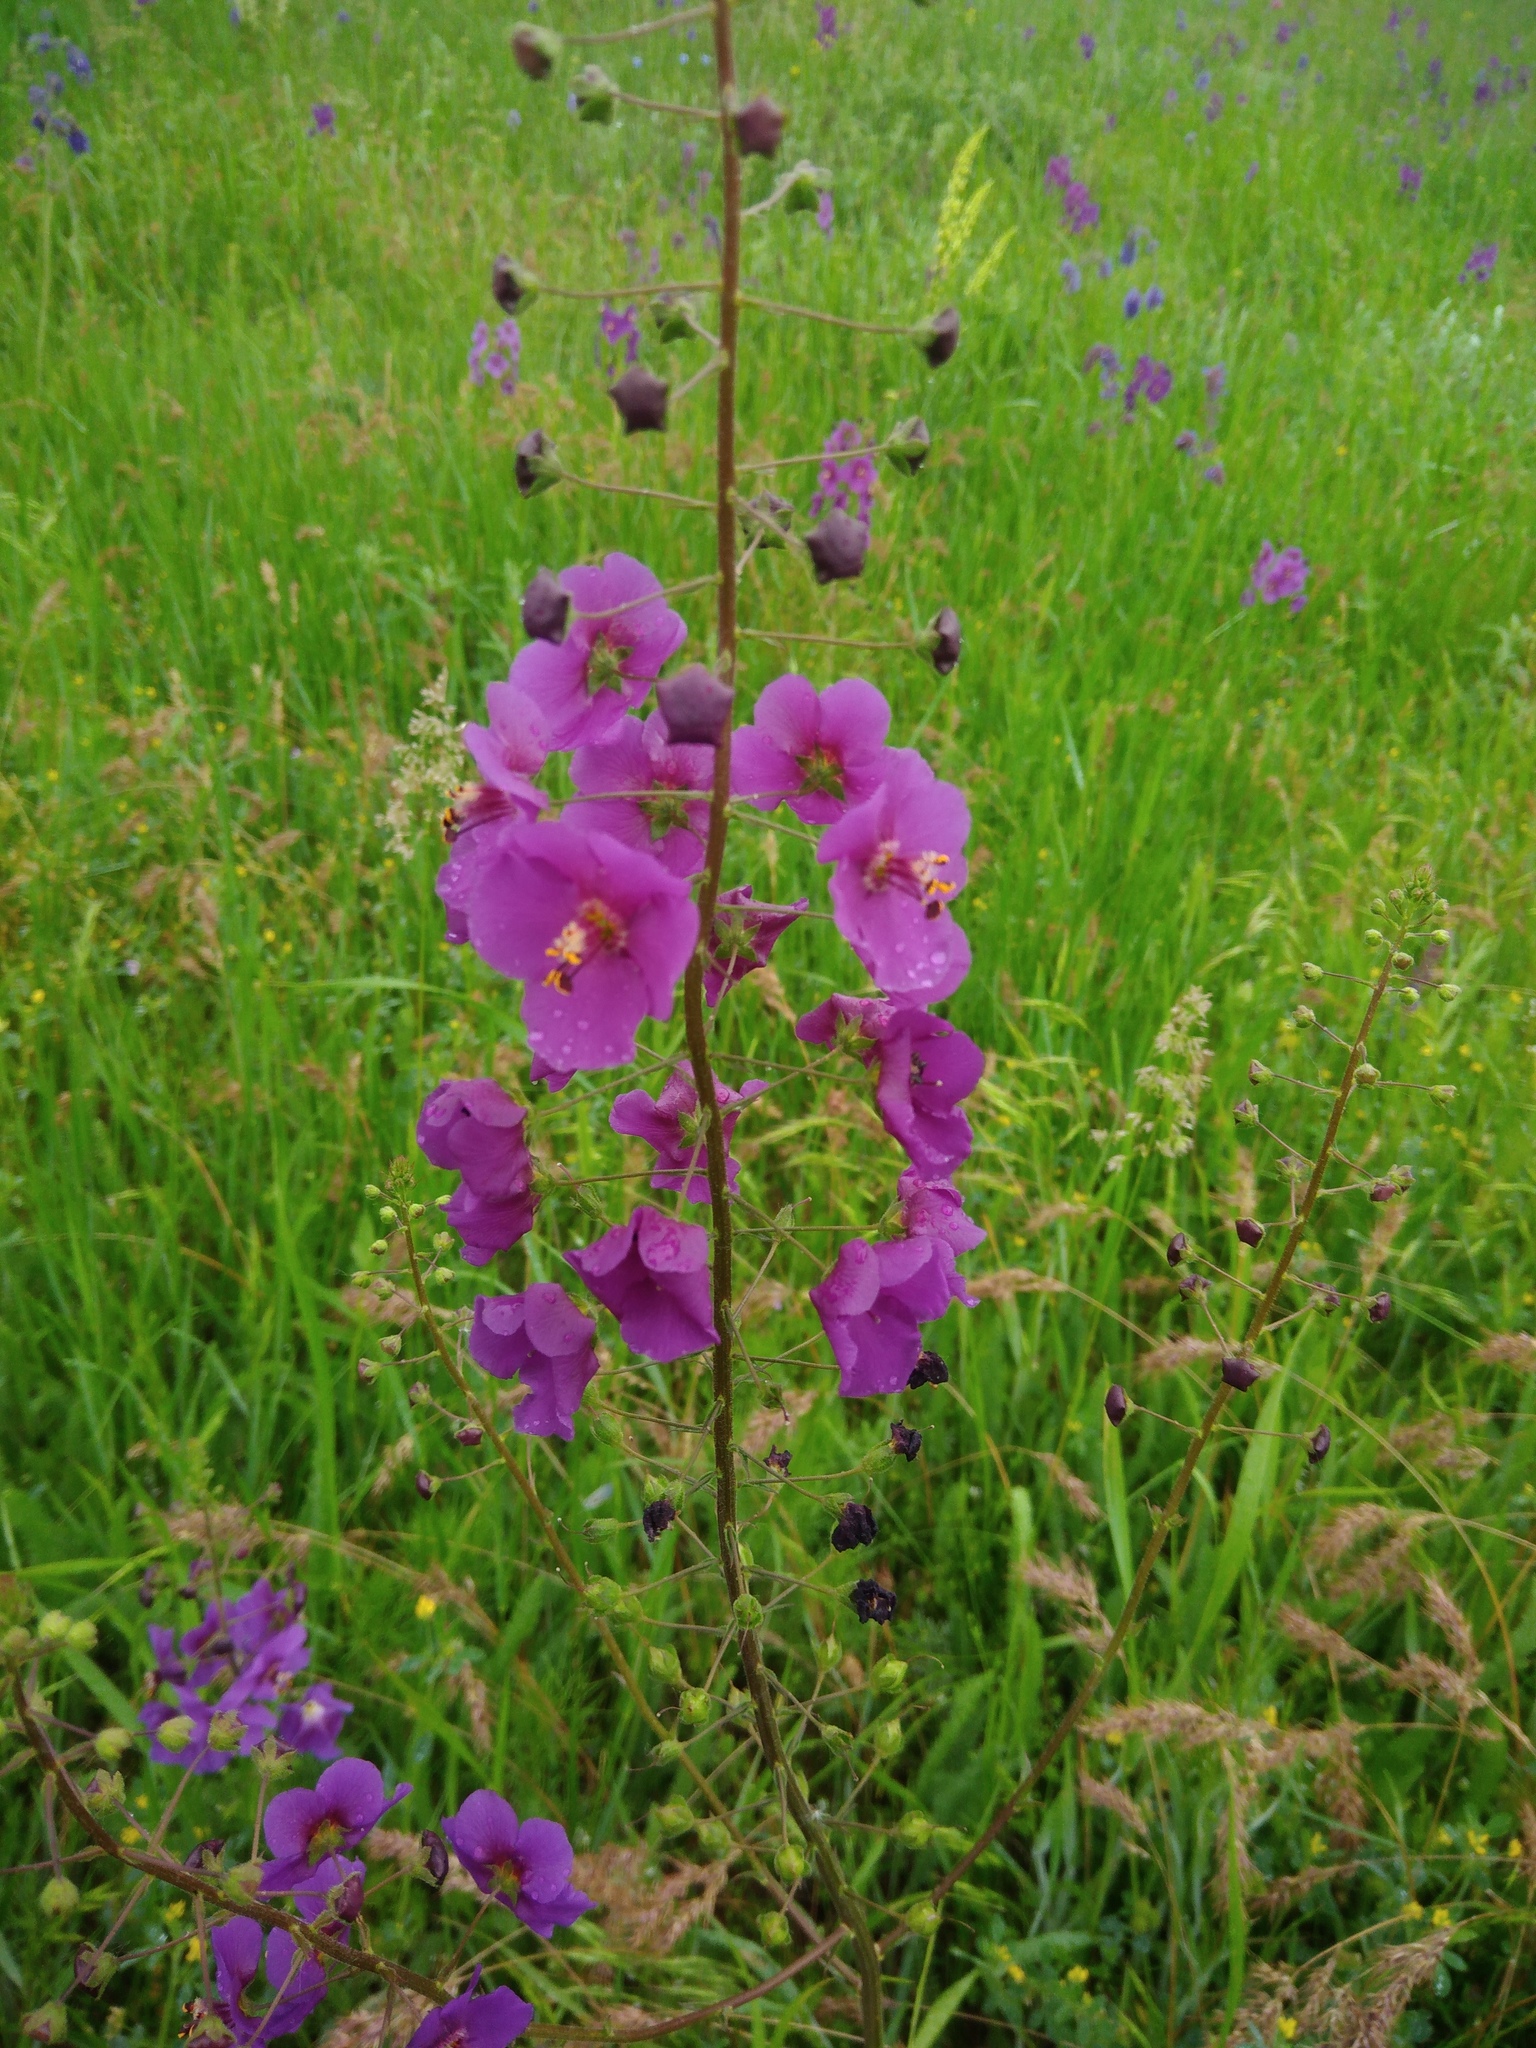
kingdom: Plantae
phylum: Tracheophyta
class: Magnoliopsida
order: Lamiales
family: Scrophulariaceae
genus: Verbascum
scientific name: Verbascum phoeniceum
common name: Purple mullein
